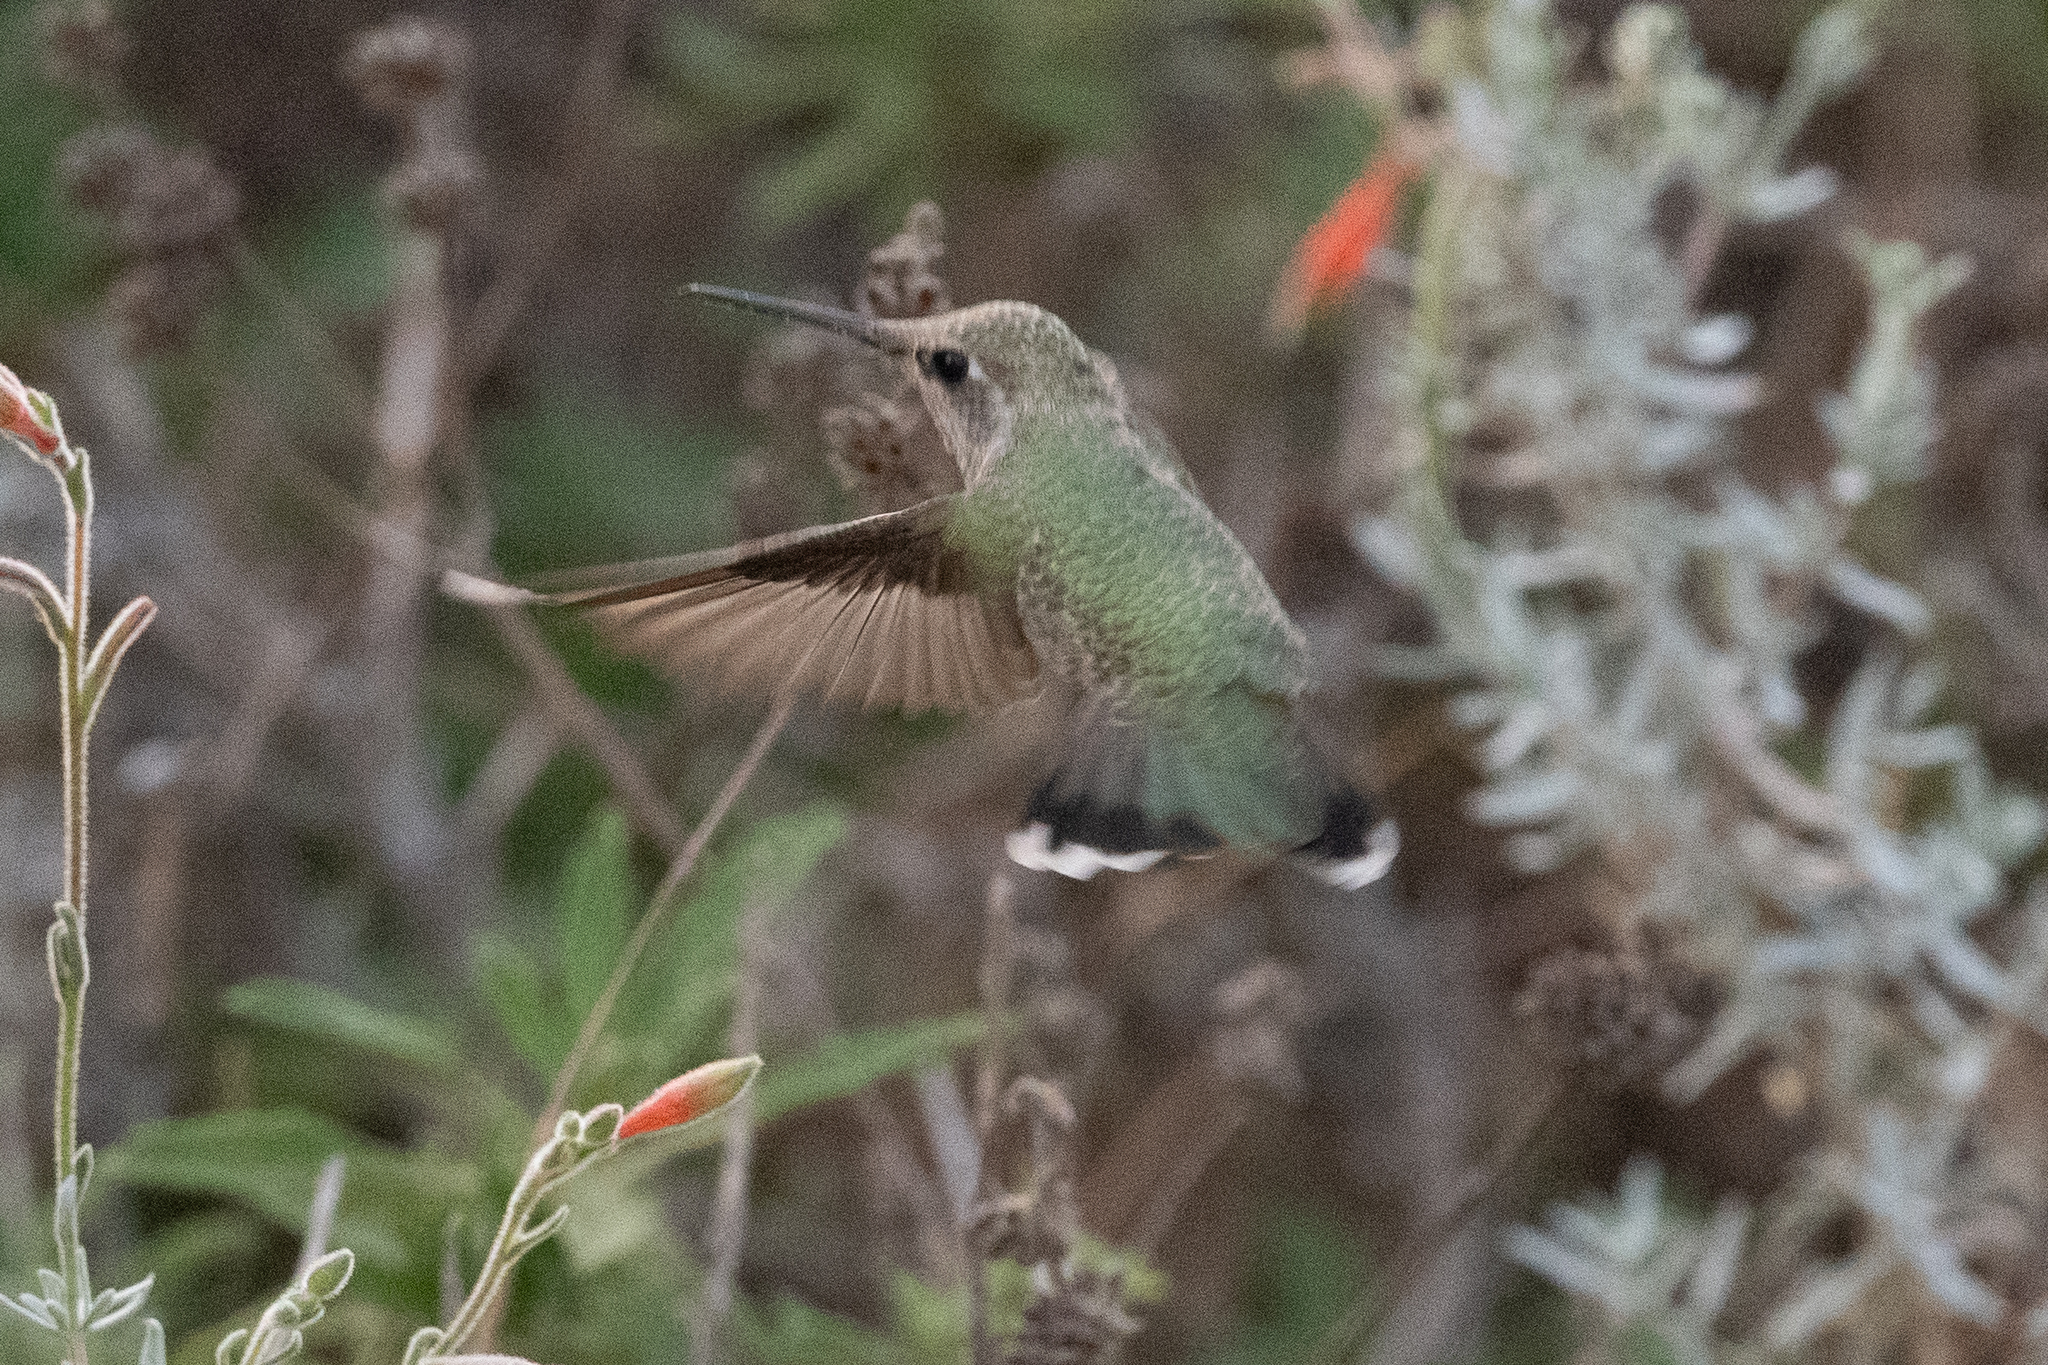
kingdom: Animalia
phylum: Chordata
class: Aves
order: Apodiformes
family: Trochilidae
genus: Calypte
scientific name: Calypte anna
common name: Anna's hummingbird
